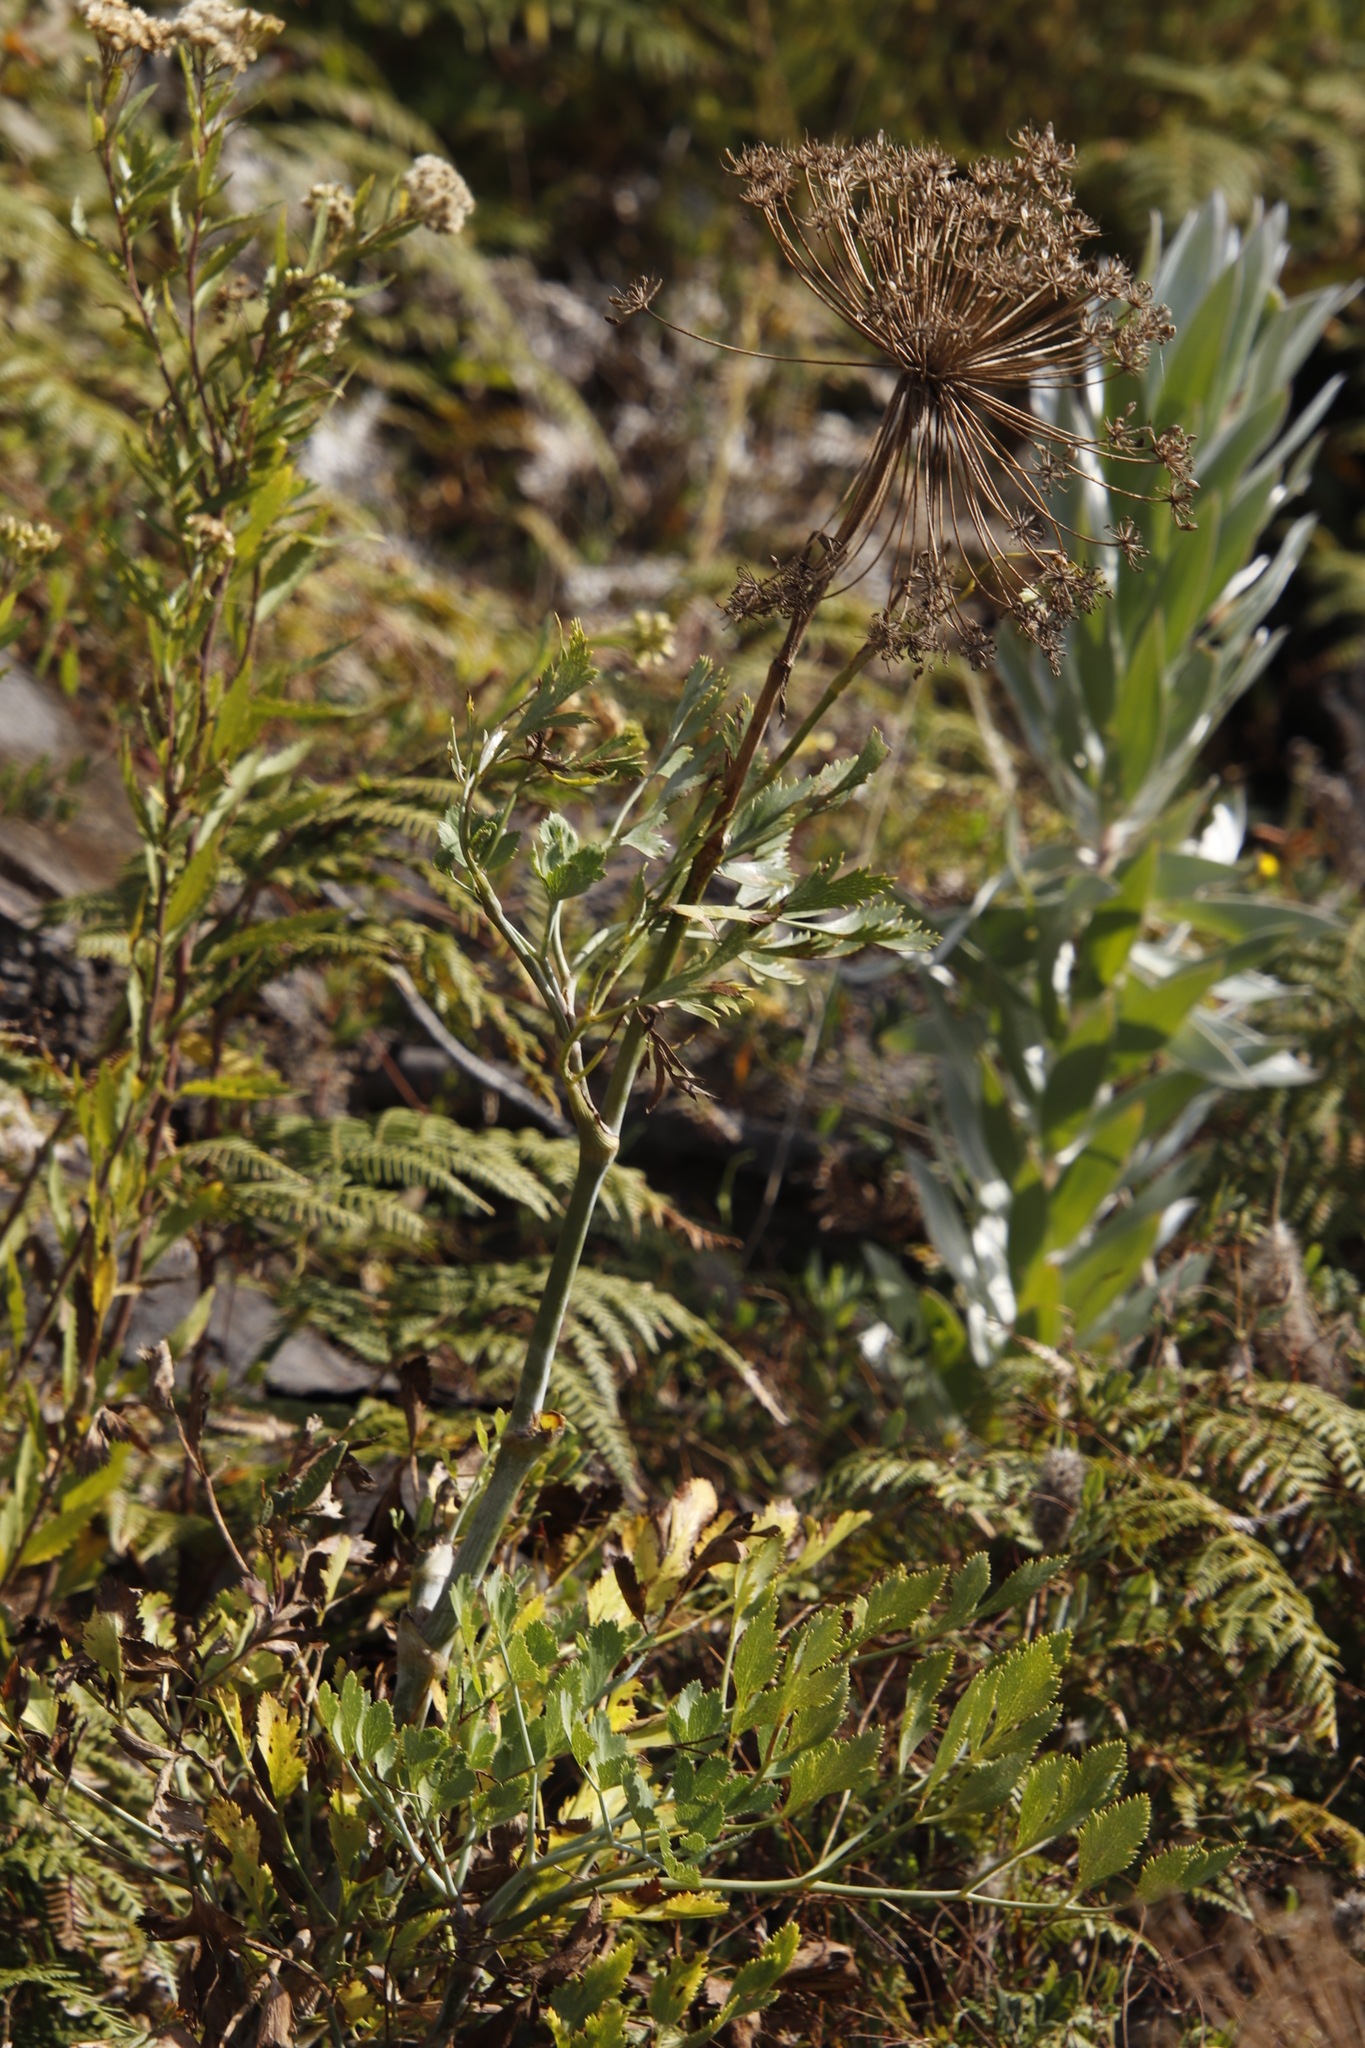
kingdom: Plantae
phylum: Tracheophyta
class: Magnoliopsida
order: Apiales
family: Apiaceae
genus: Notobubon
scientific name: Notobubon galbanum
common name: Blisterbush
